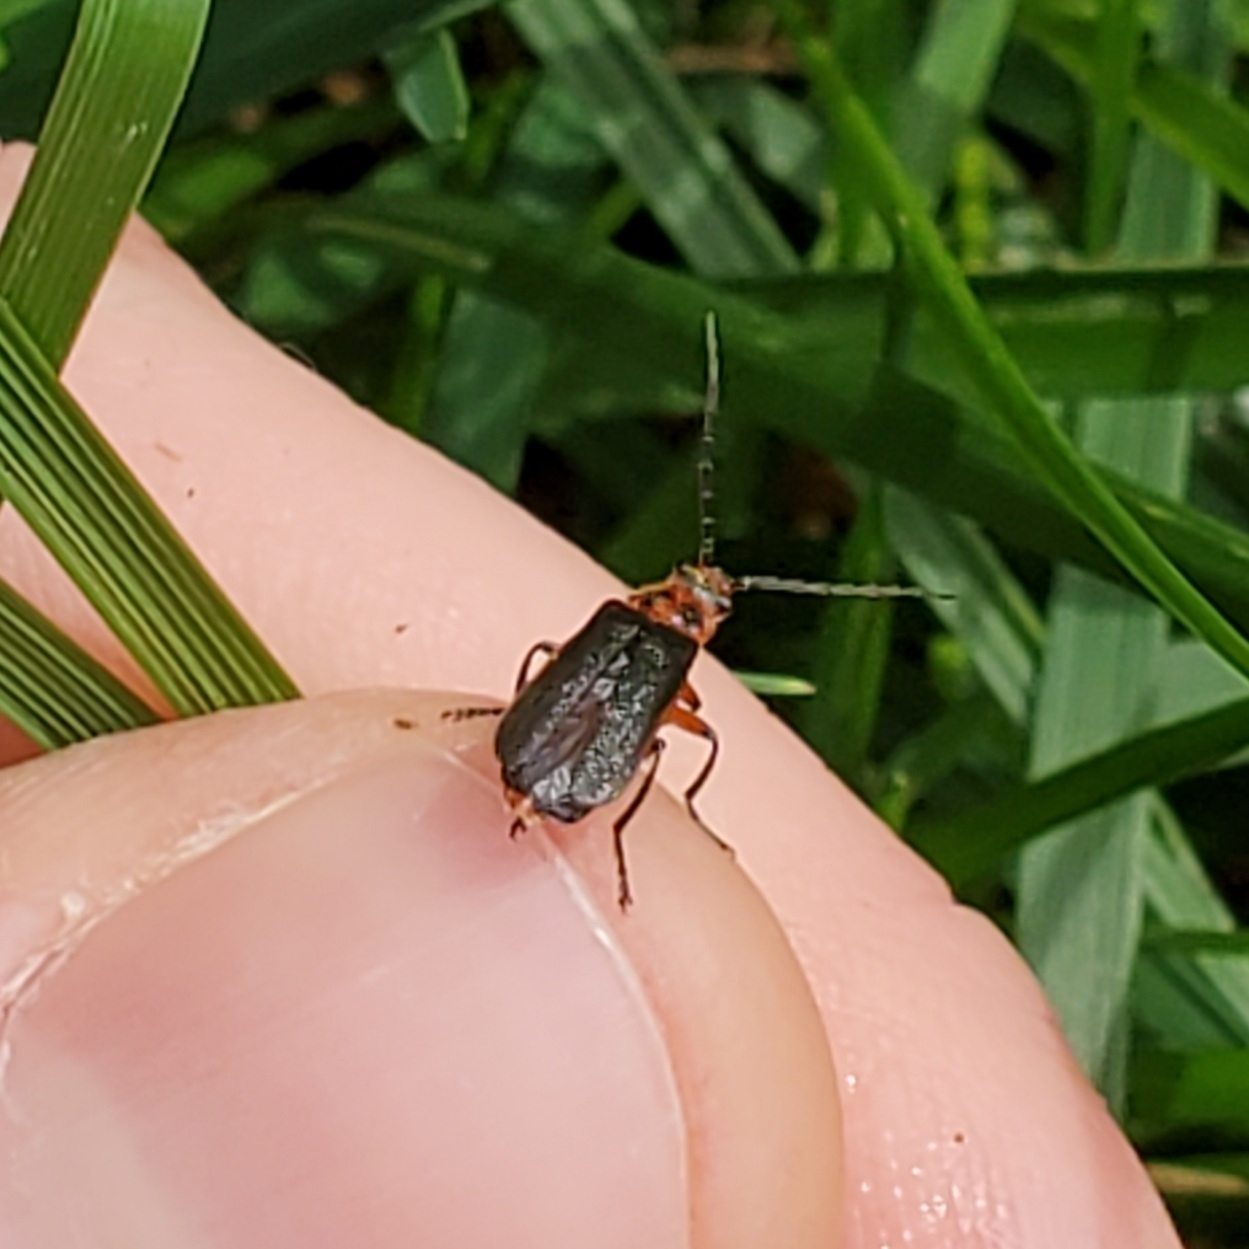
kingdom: Animalia
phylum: Arthropoda
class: Insecta
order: Coleoptera
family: Cantharidae
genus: Atalantycha
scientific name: Atalantycha bilineata
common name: Two-lined leatherwing
